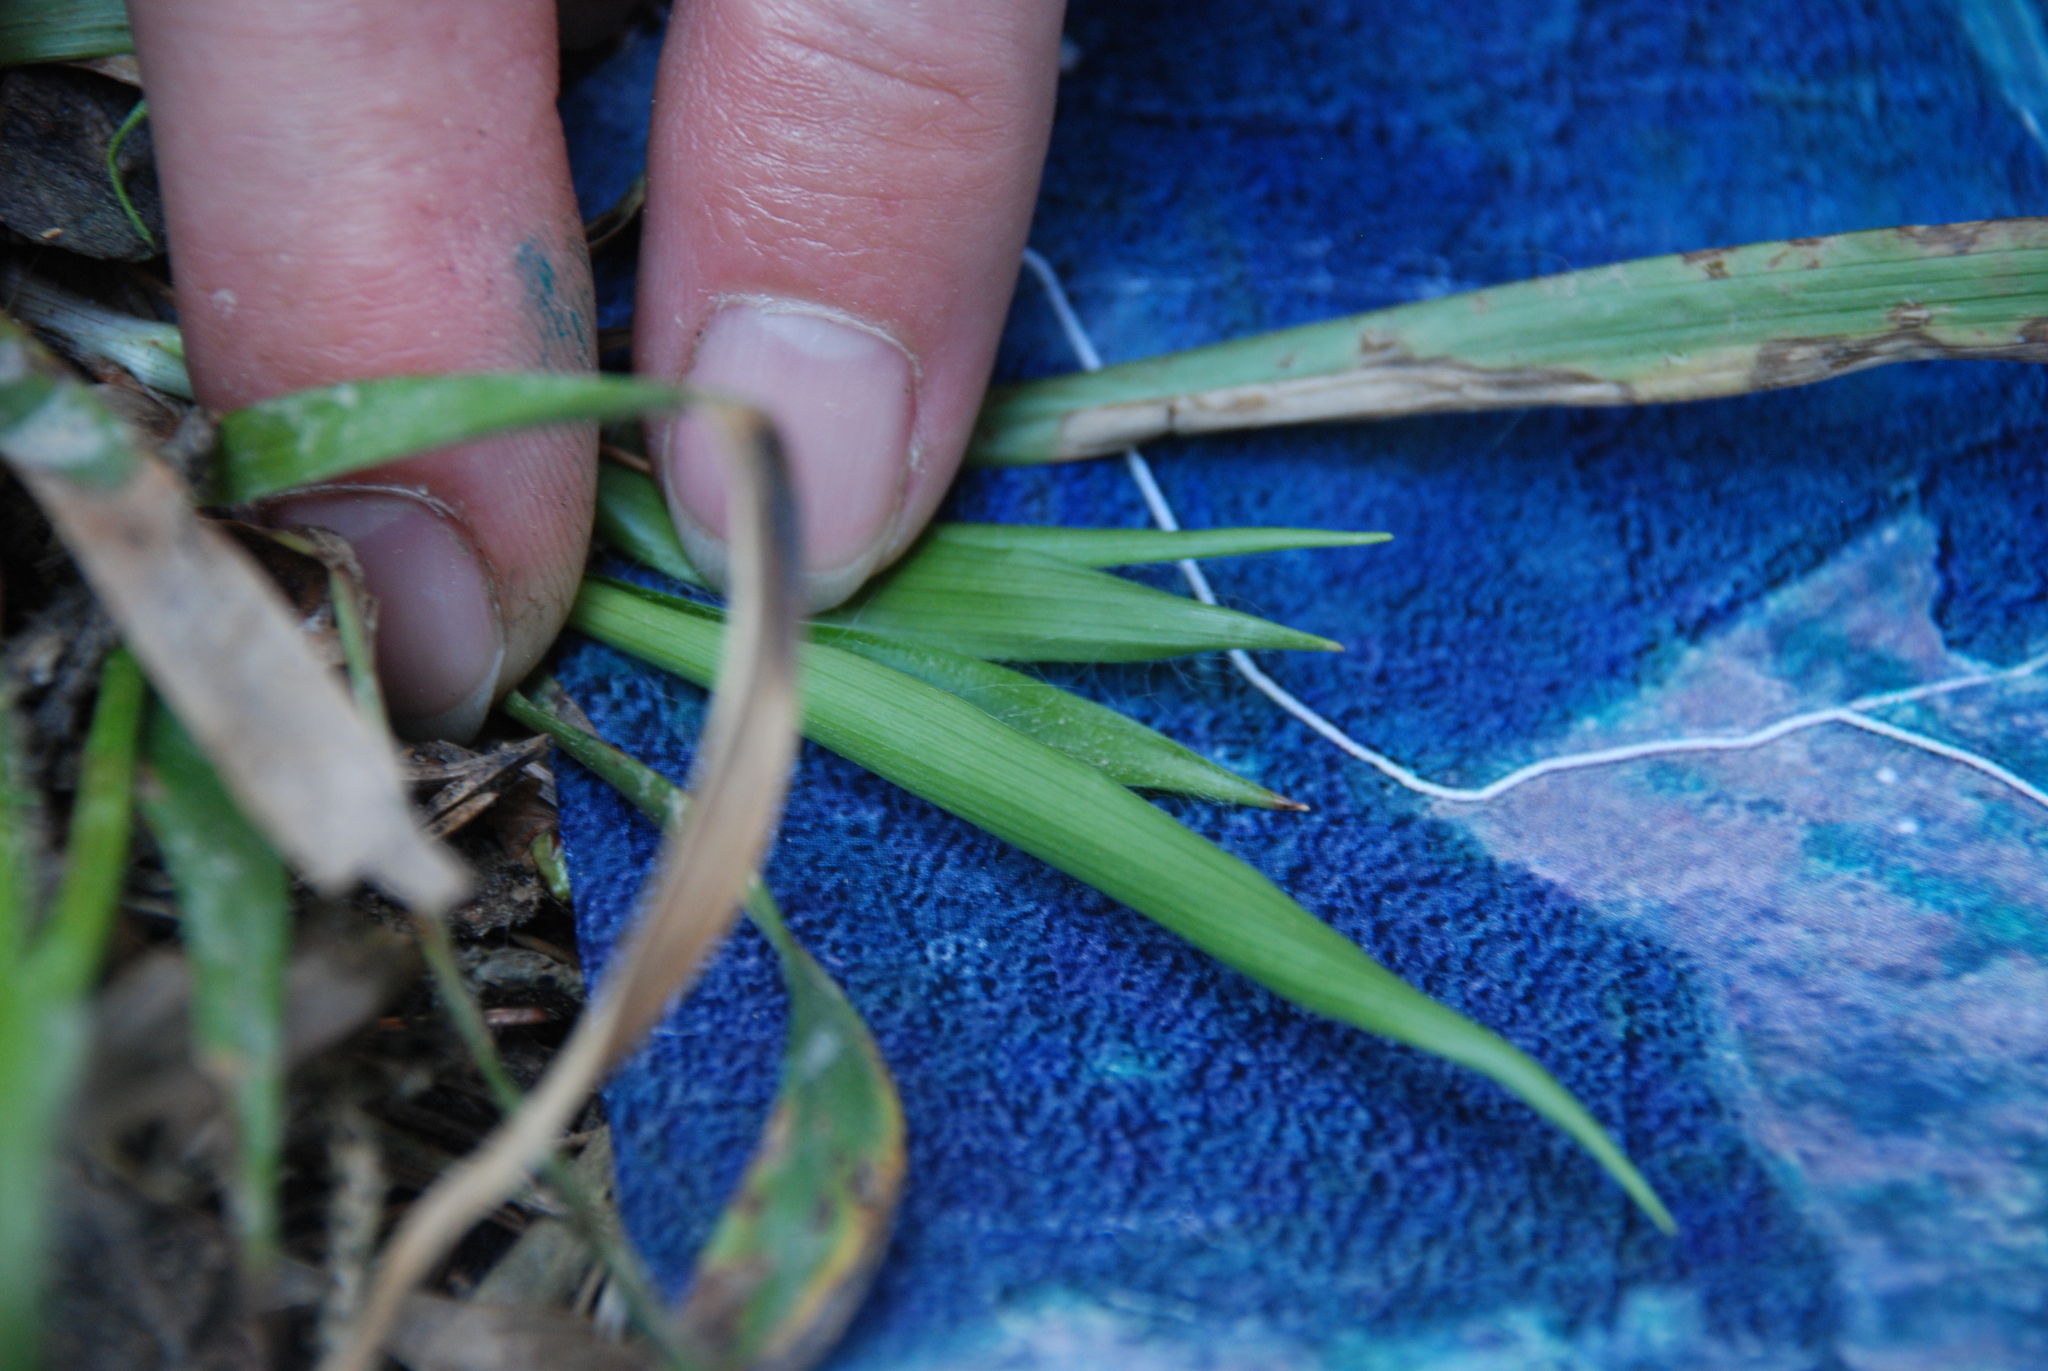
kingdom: Plantae
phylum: Tracheophyta
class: Liliopsida
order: Poales
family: Juncaceae
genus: Luzula
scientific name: Luzula pilosa
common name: Hairy wood-rush
